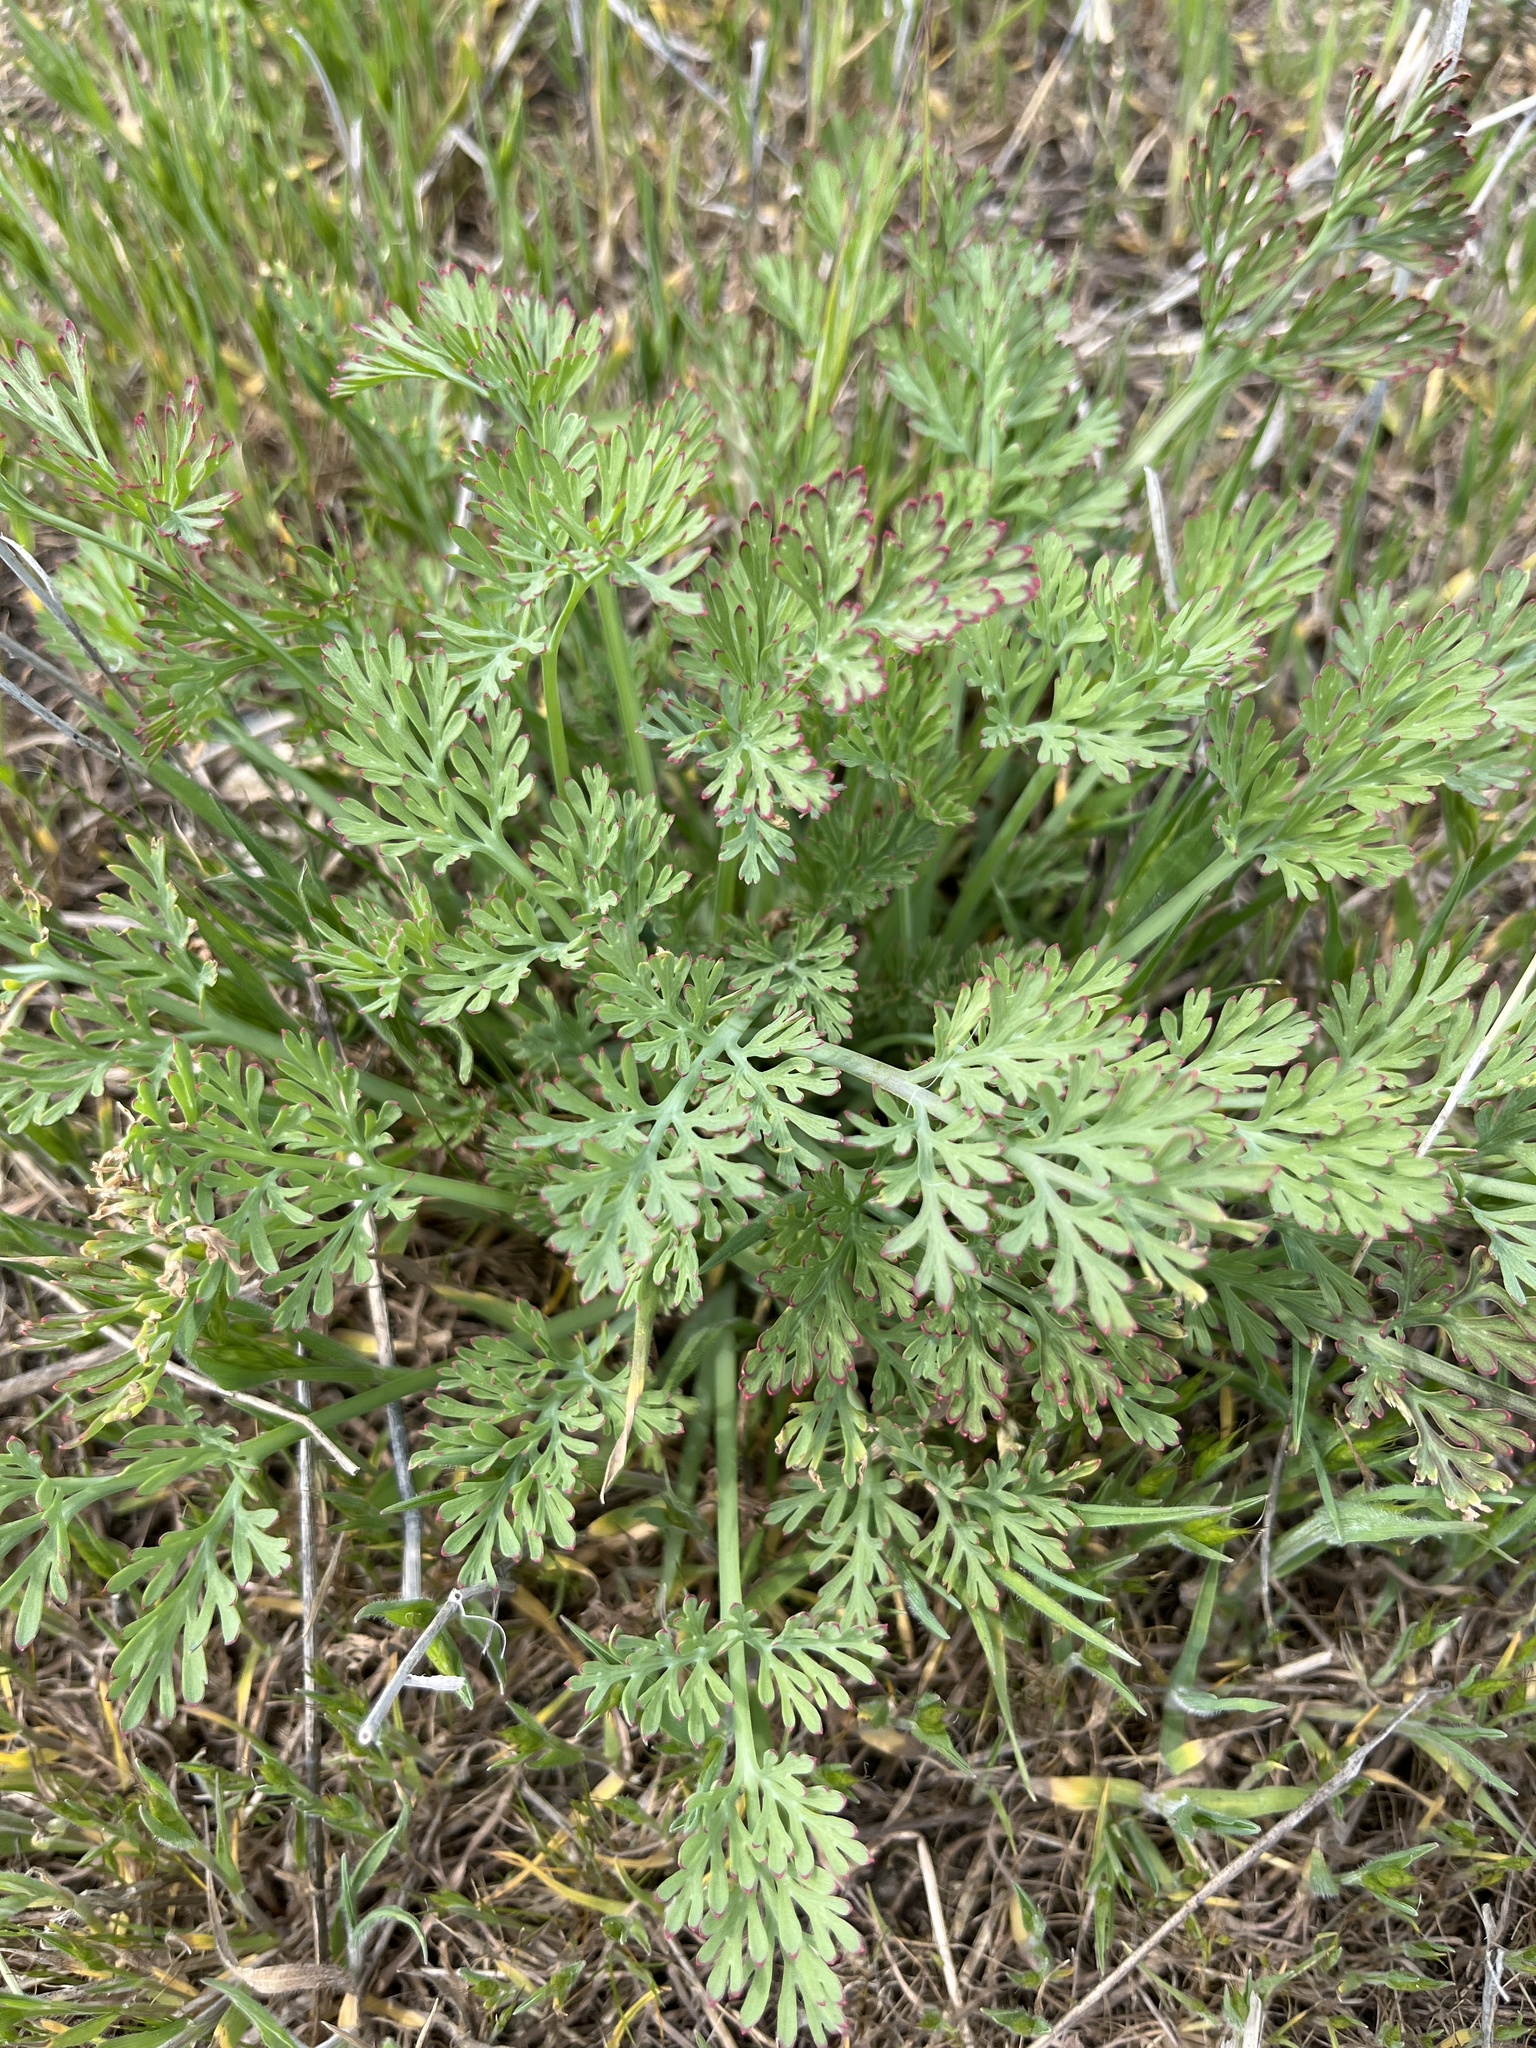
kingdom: Plantae
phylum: Tracheophyta
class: Magnoliopsida
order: Ranunculales
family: Papaveraceae
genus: Eschscholzia
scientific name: Eschscholzia californica
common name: California poppy
